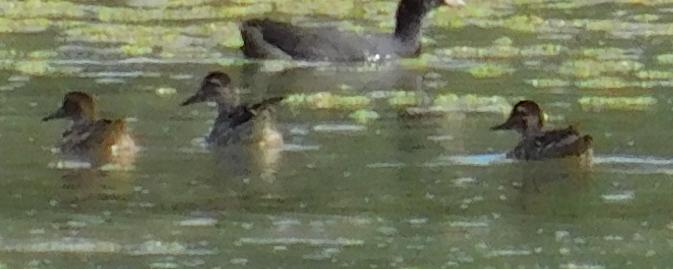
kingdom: Animalia
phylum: Chordata
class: Aves
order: Anseriformes
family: Anatidae
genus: Spatula
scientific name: Spatula querquedula
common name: Garganey
